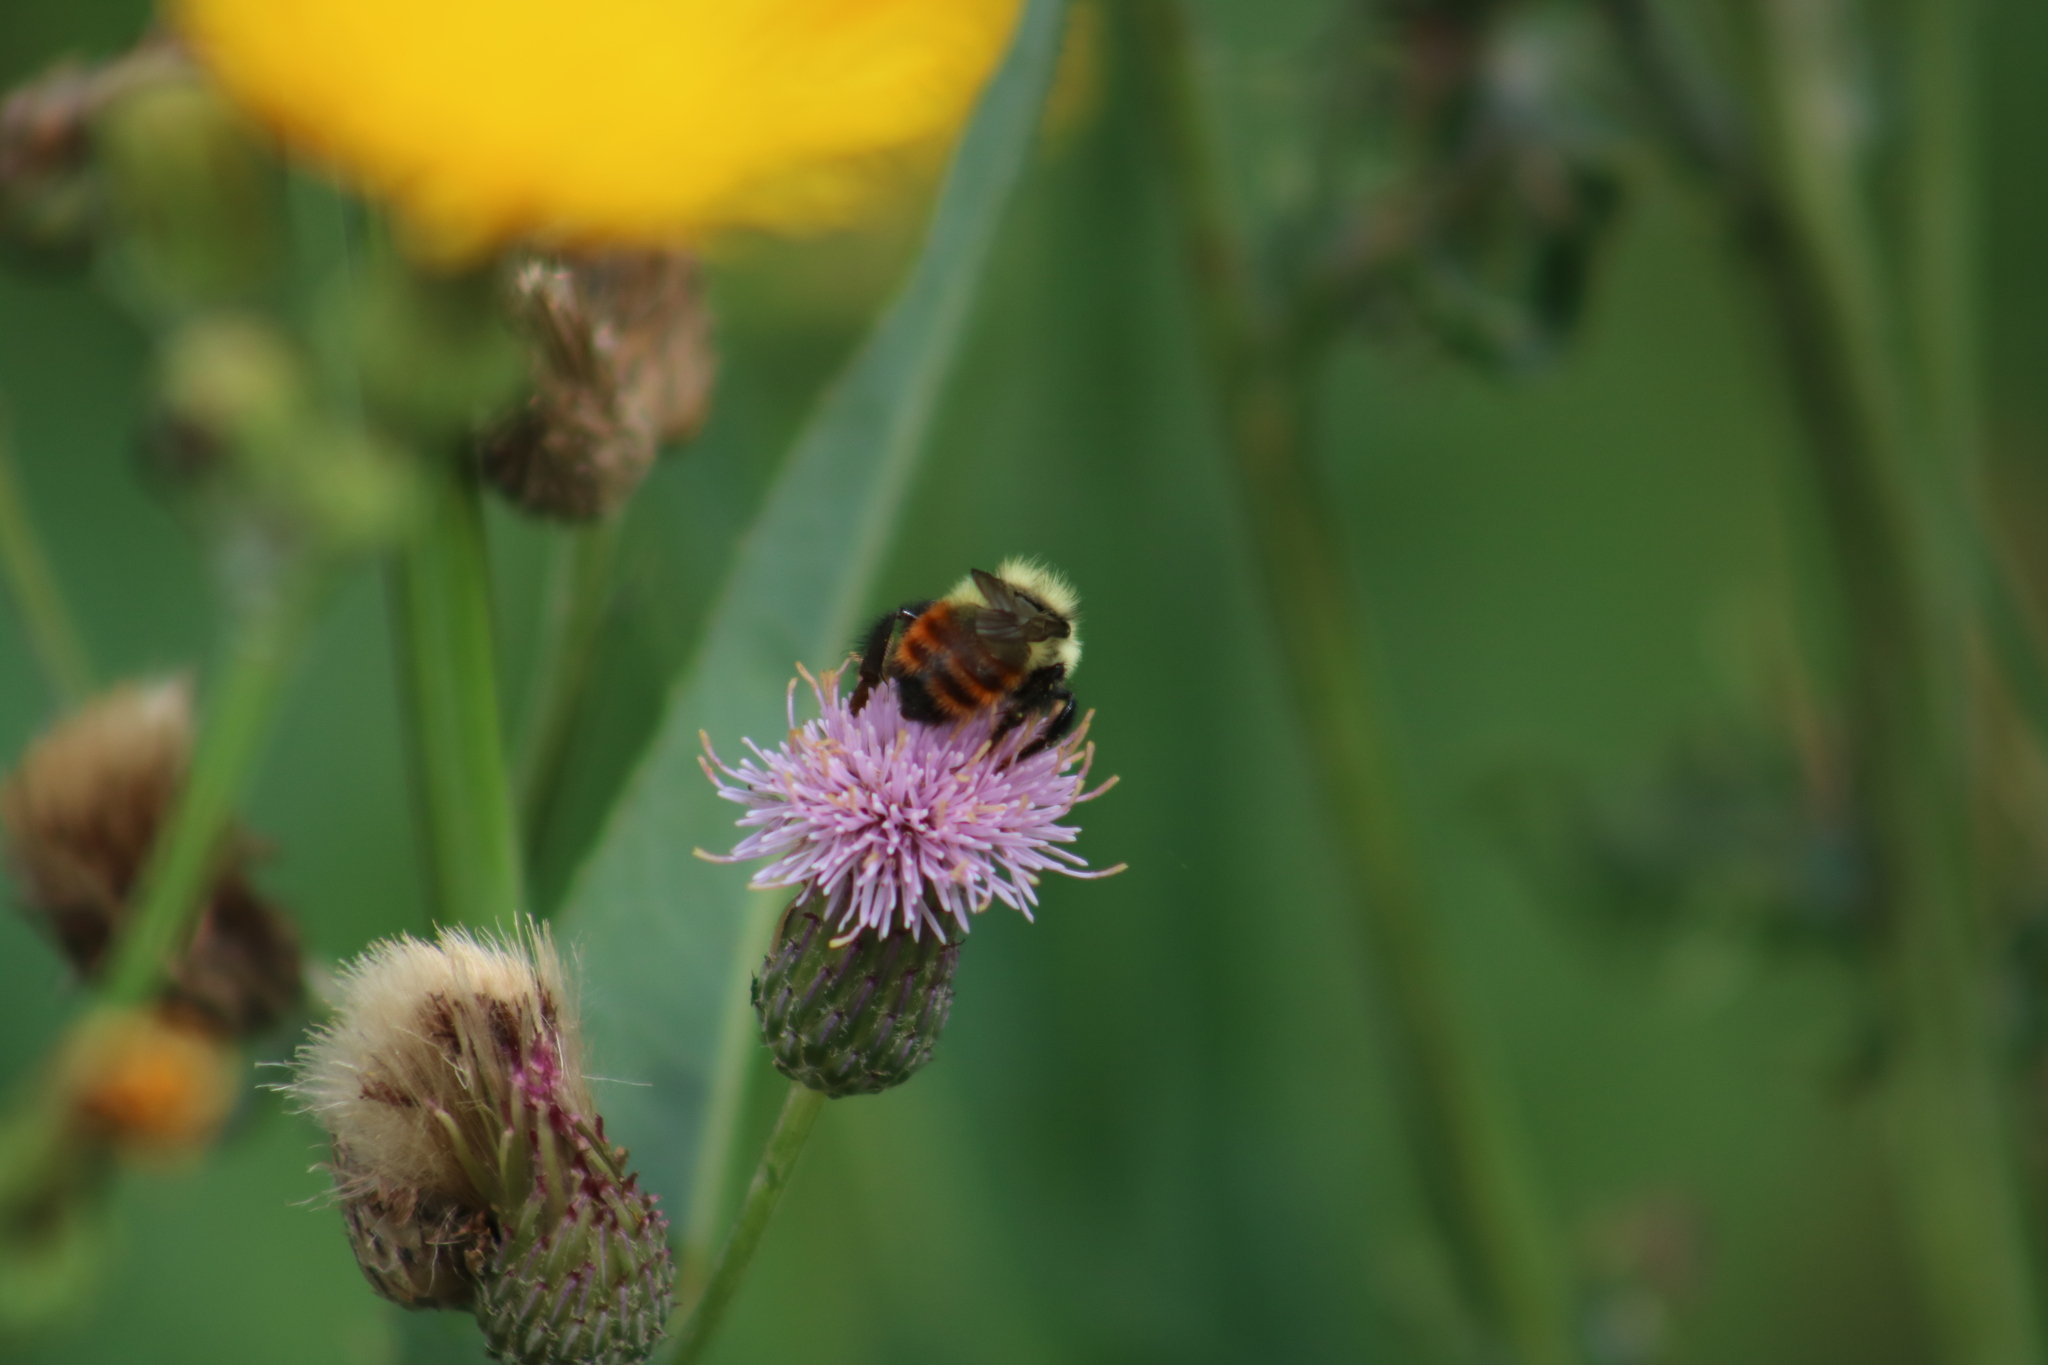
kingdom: Animalia
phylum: Arthropoda
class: Insecta
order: Hymenoptera
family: Apidae
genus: Bombus
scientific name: Bombus rufocinctus
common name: Red-belted bumble bee
